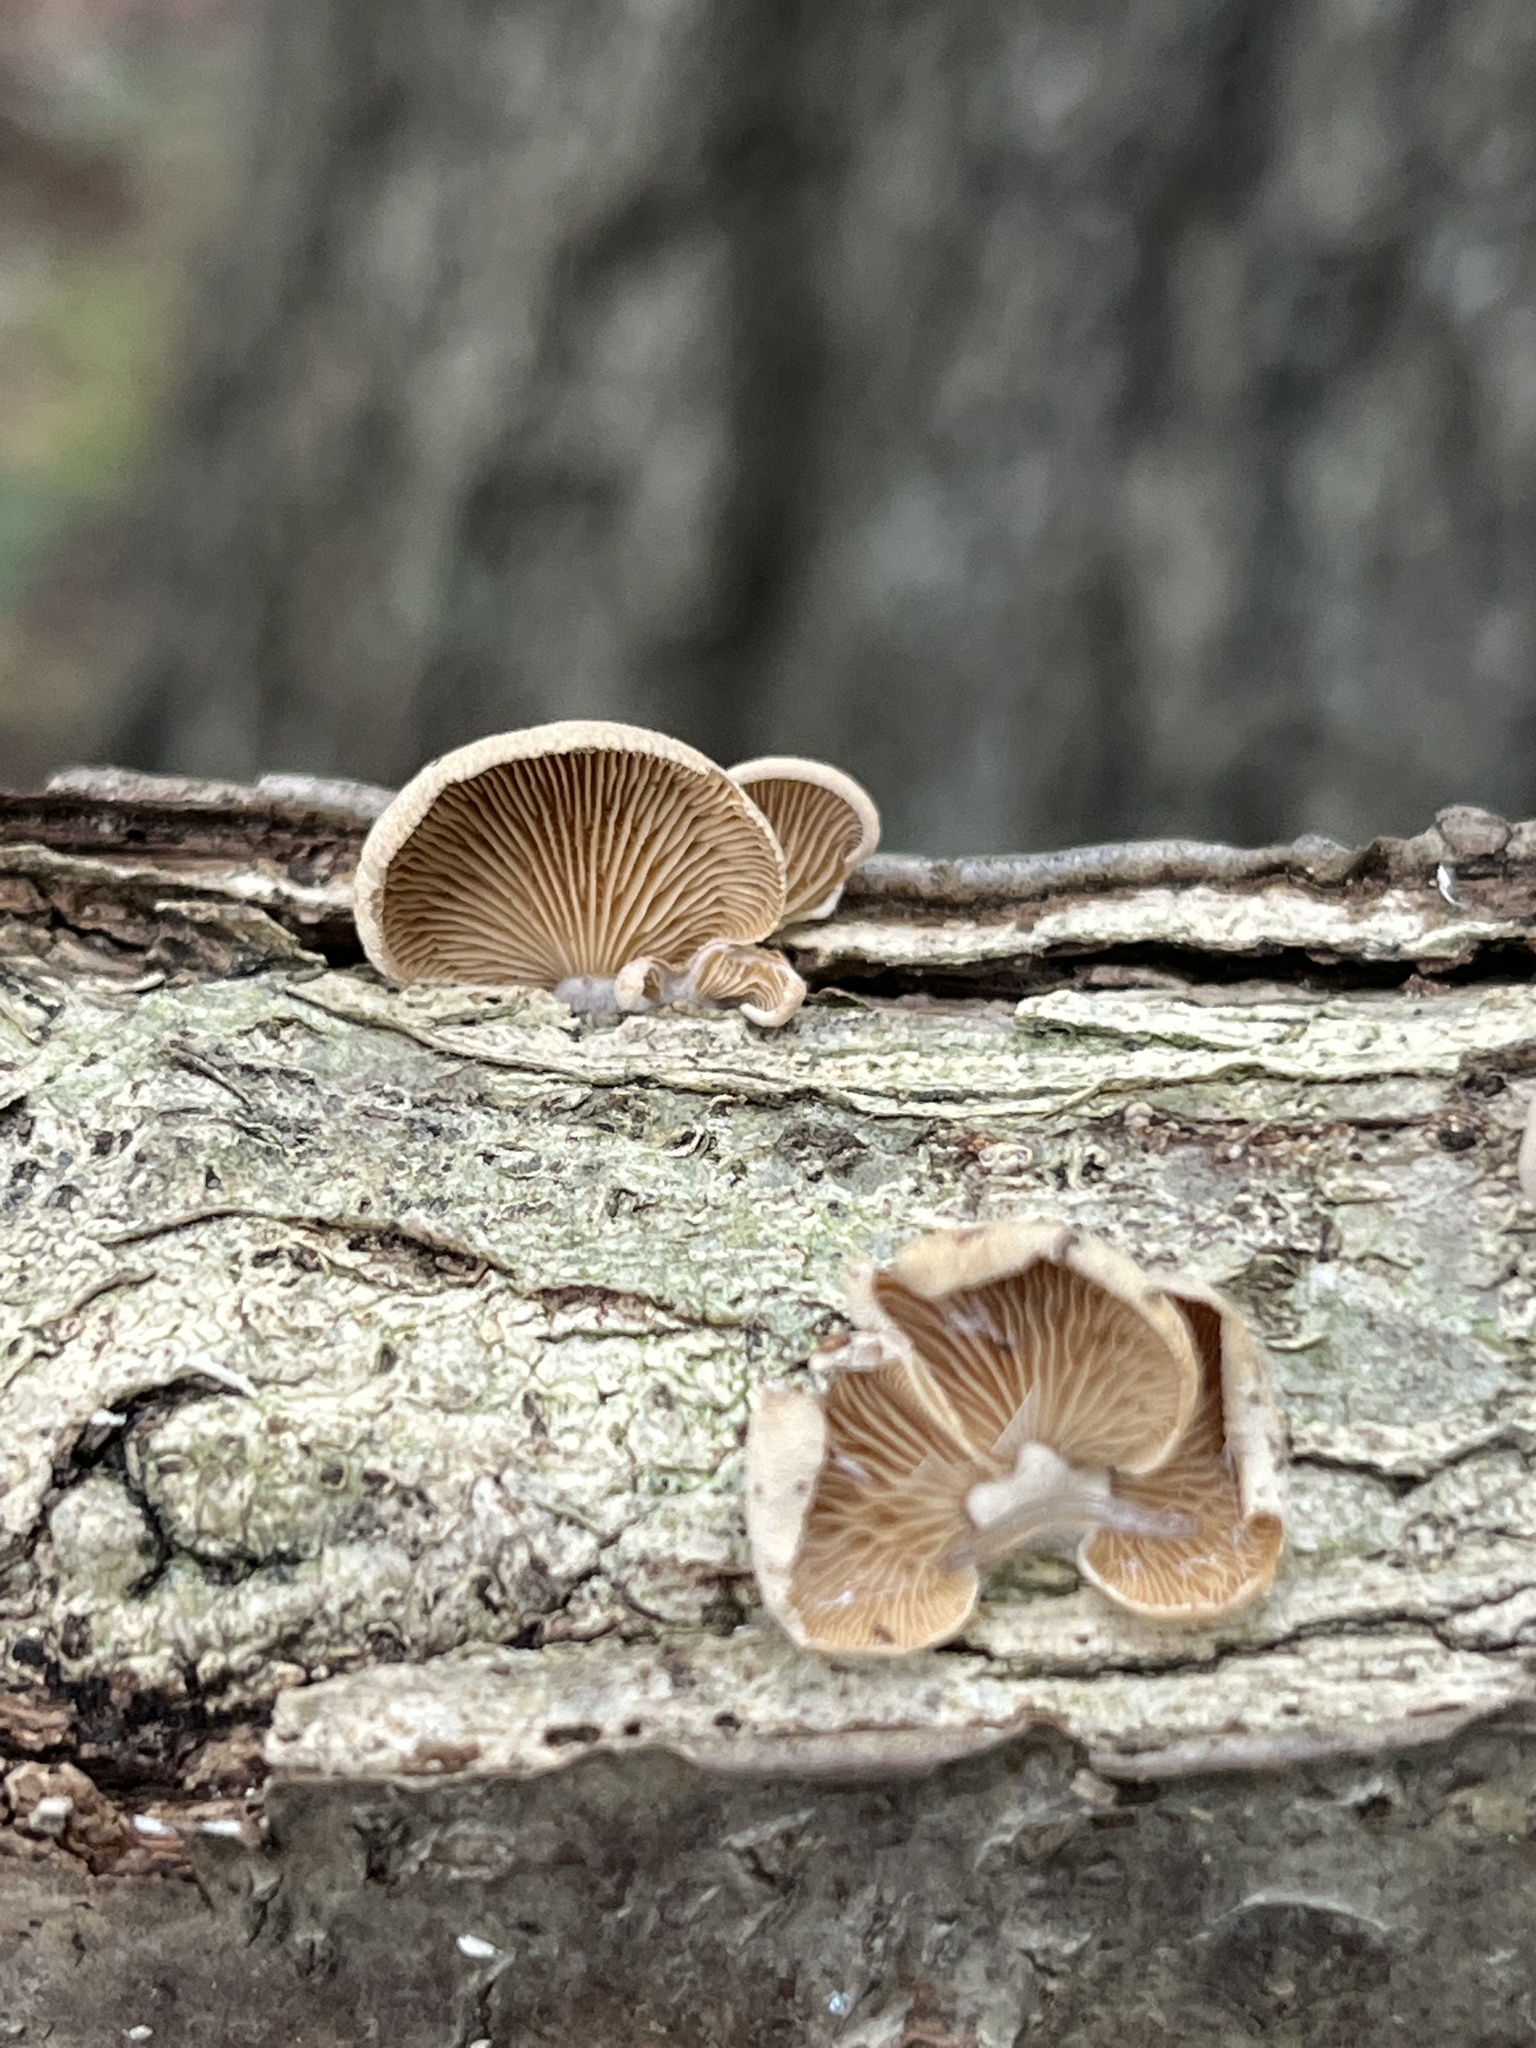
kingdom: Fungi
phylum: Basidiomycota
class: Agaricomycetes
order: Agaricales
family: Mycenaceae
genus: Panellus
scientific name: Panellus stipticus
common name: Bitter oysterling
